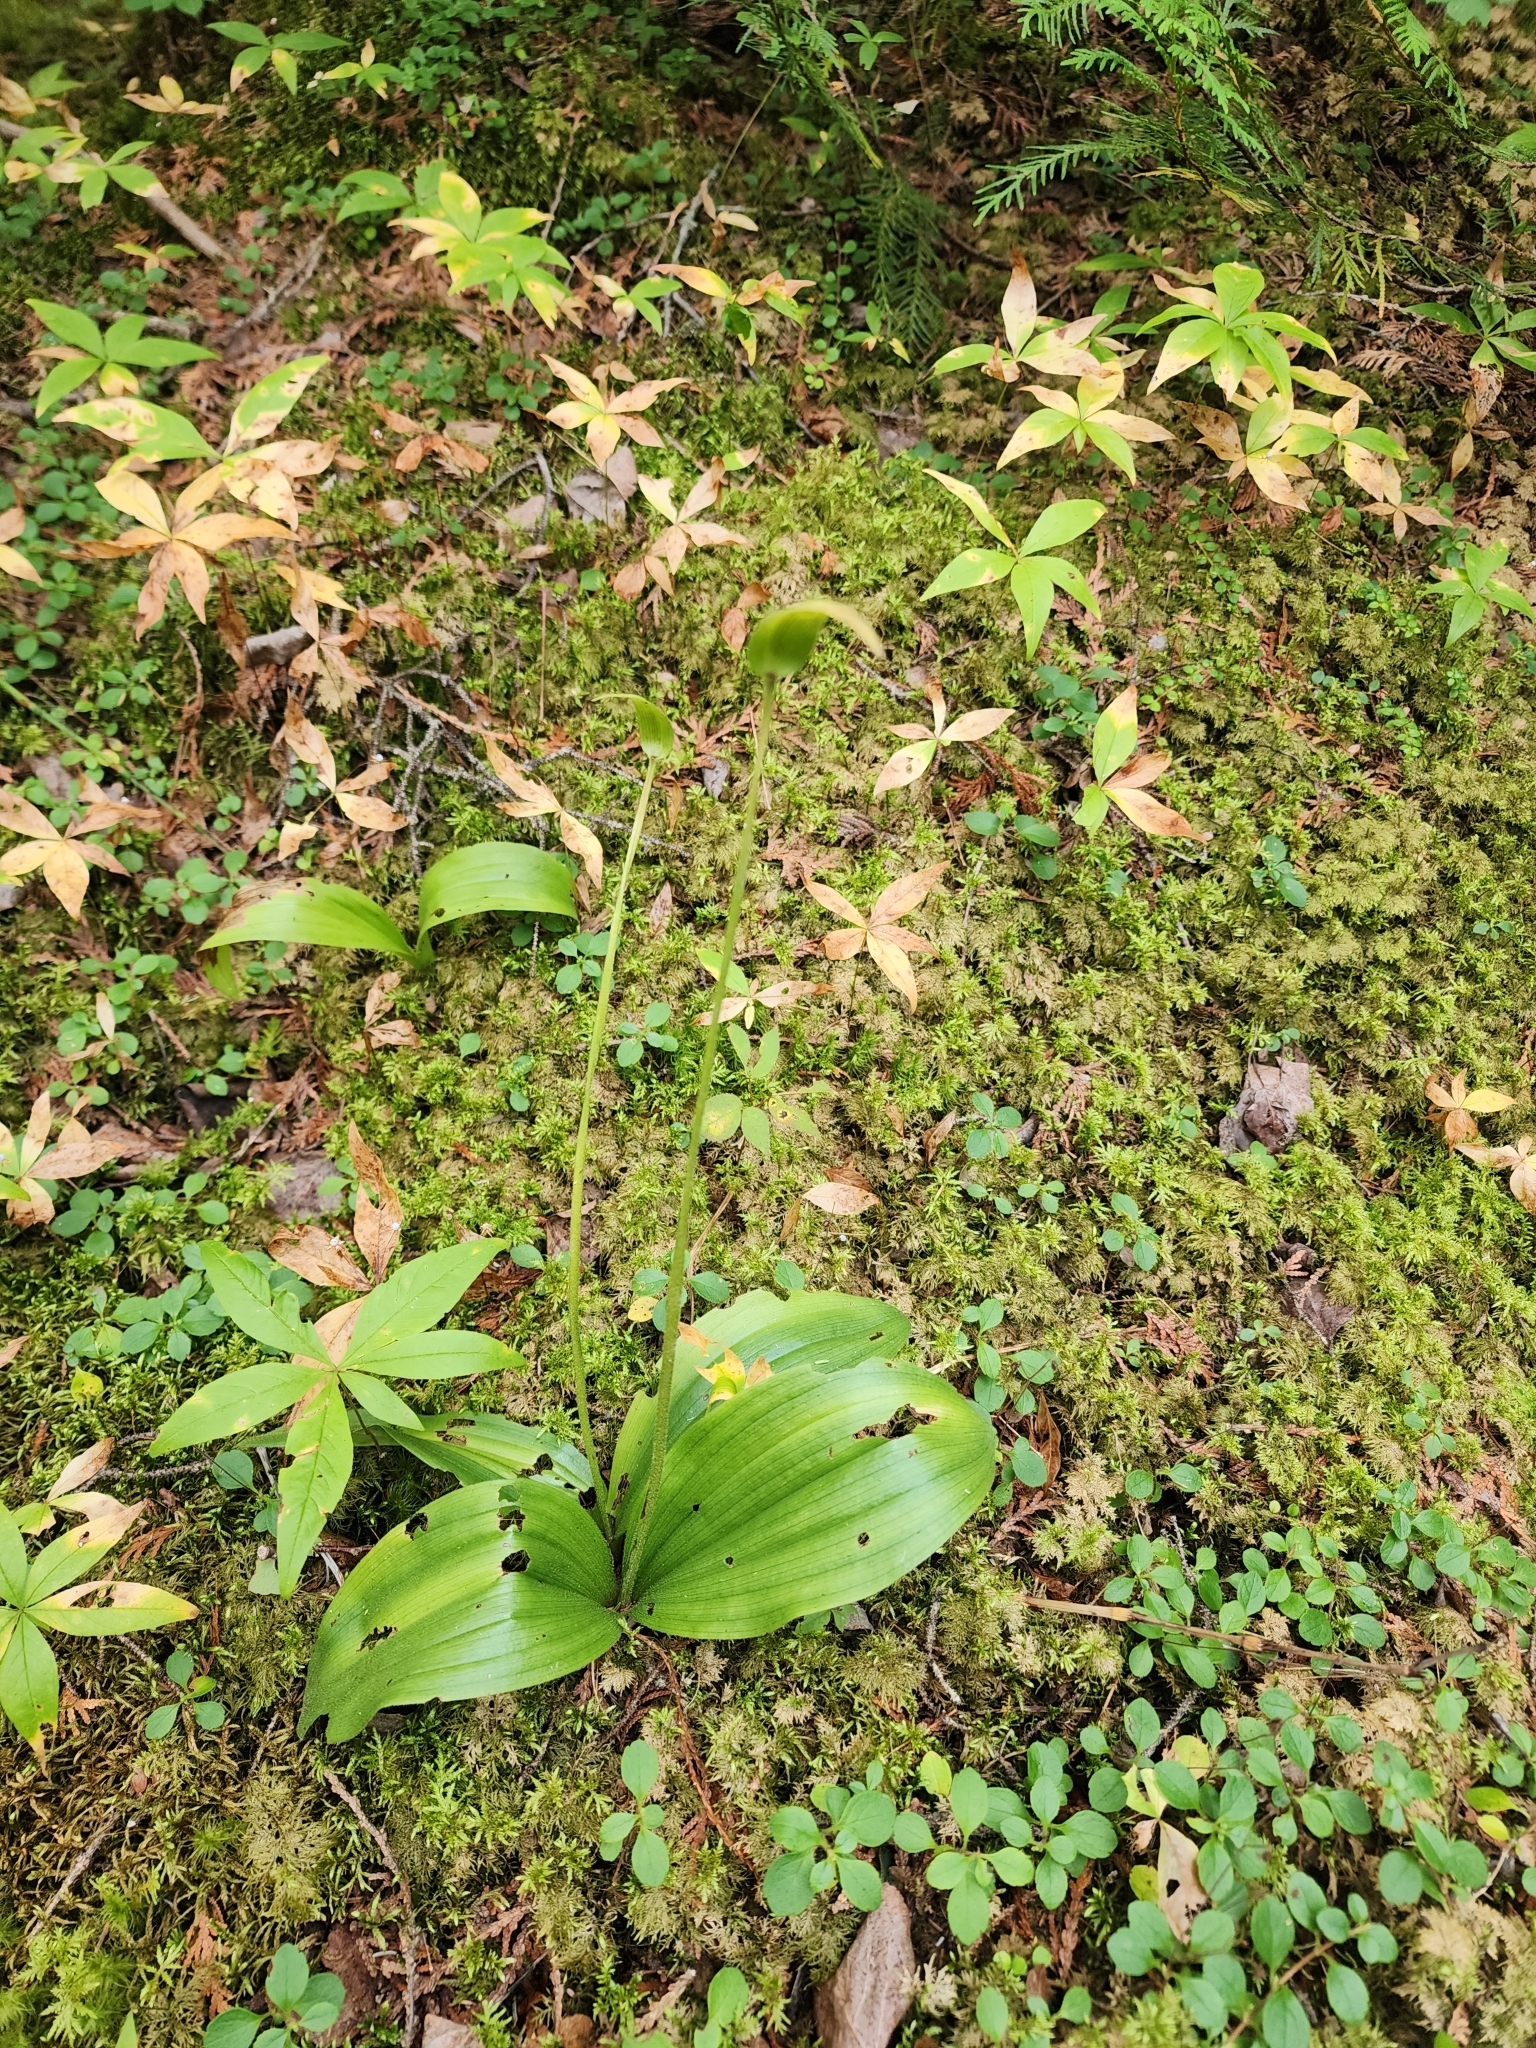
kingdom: Plantae
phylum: Tracheophyta
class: Liliopsida
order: Asparagales
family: Orchidaceae
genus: Cypripedium
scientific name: Cypripedium acaule
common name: Pink lady's-slipper
